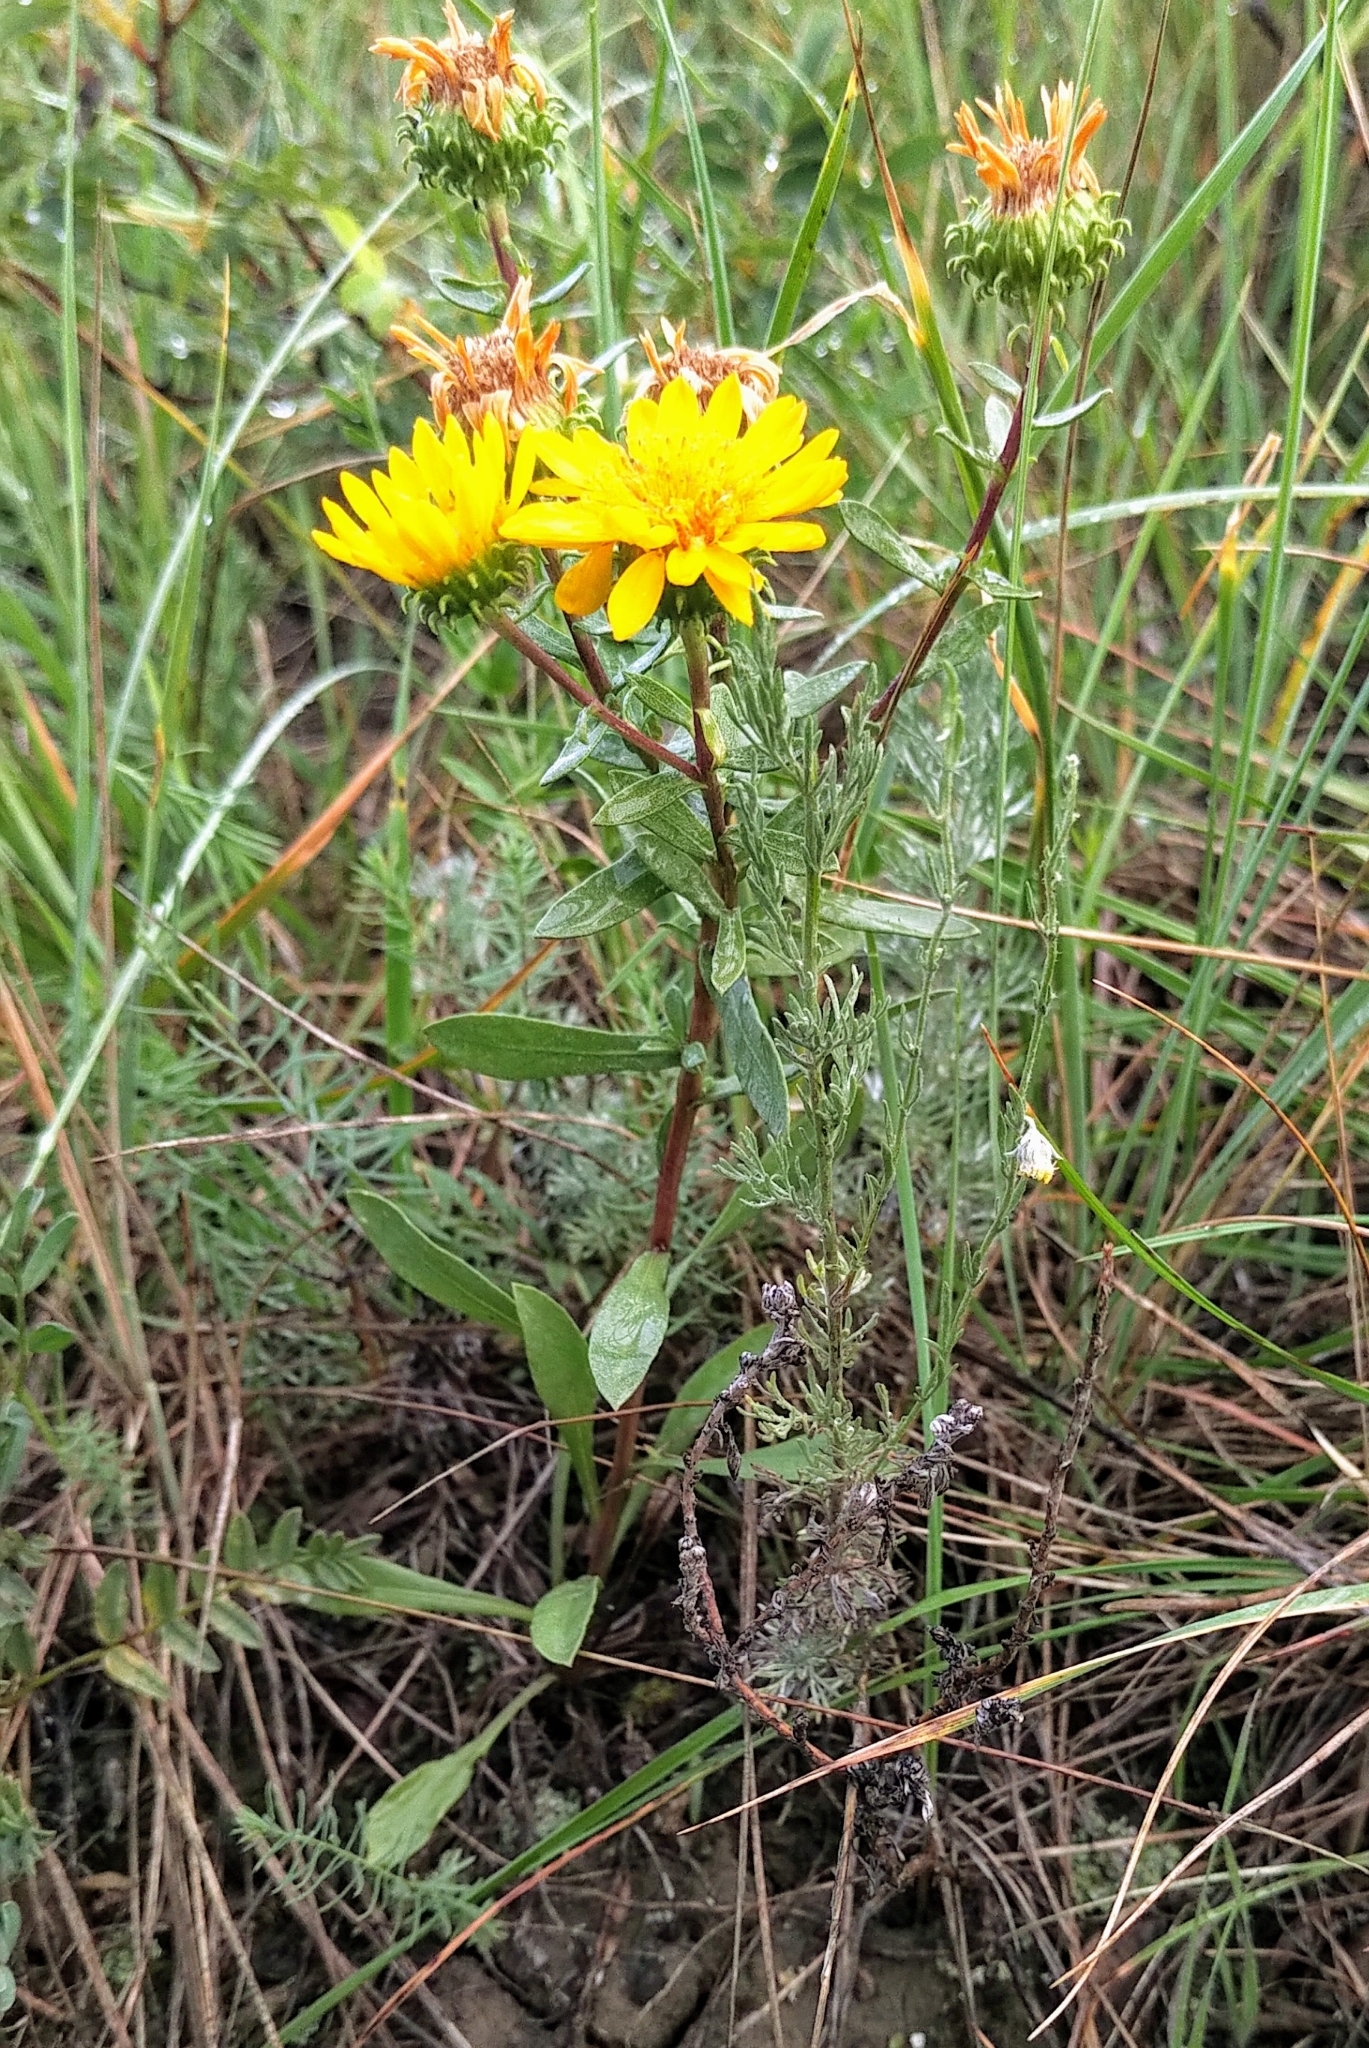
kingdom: Plantae
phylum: Tracheophyta
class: Magnoliopsida
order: Asterales
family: Asteraceae
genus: Grindelia
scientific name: Grindelia squarrosa
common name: Curly-cup gumweed
